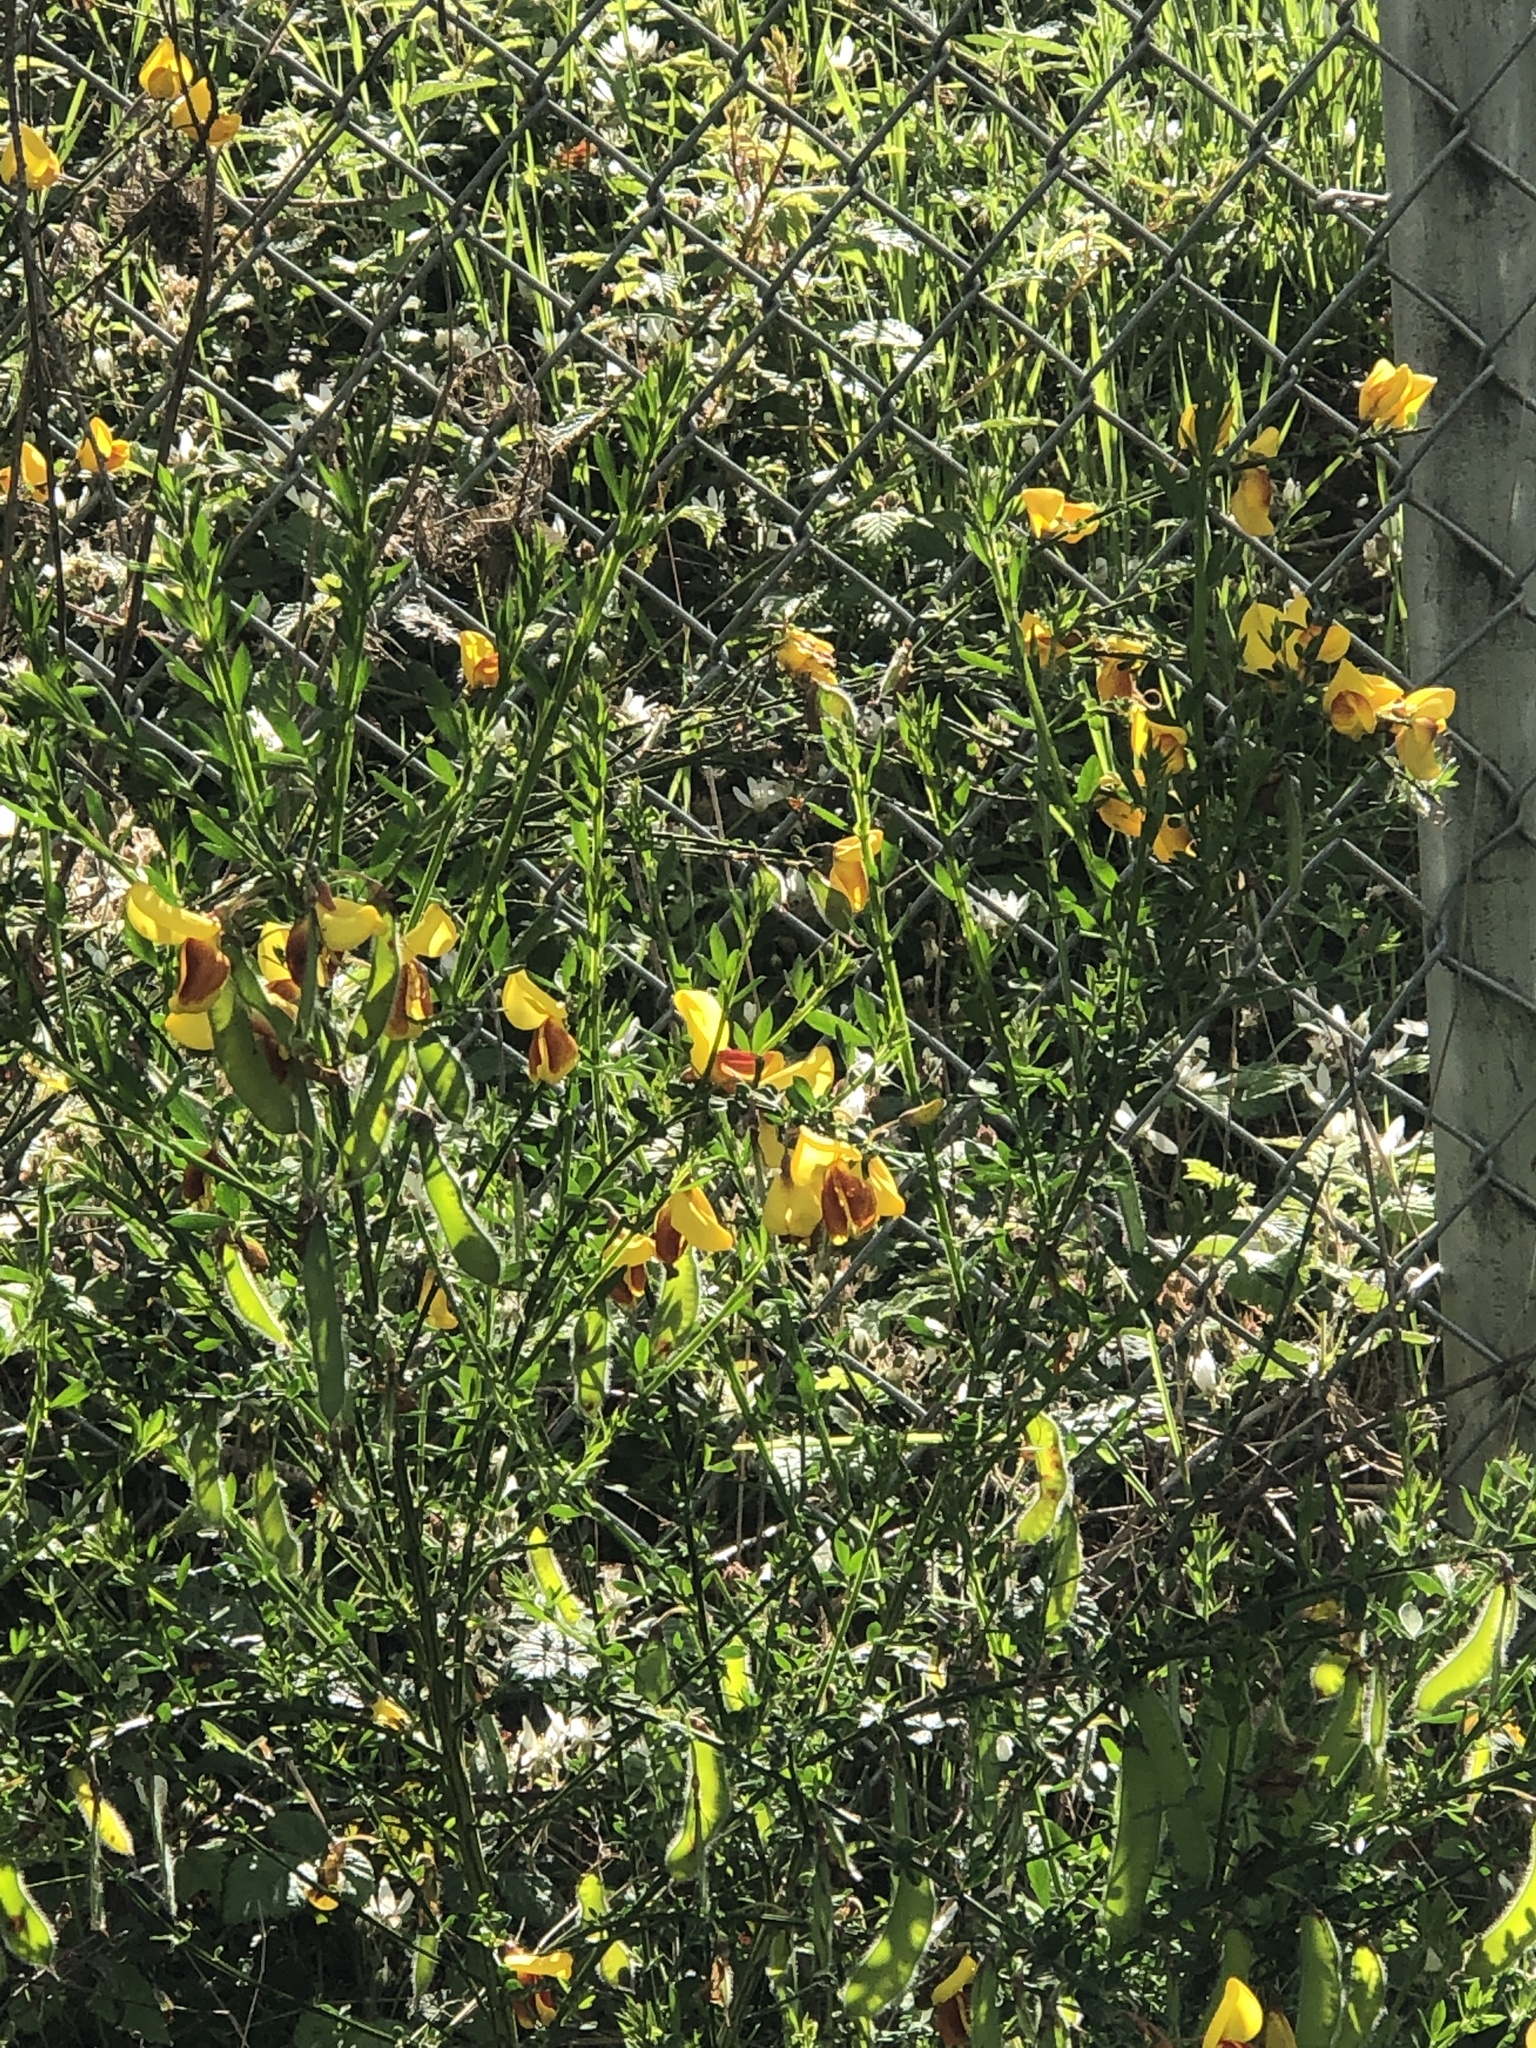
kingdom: Plantae
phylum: Tracheophyta
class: Magnoliopsida
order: Fabales
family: Fabaceae
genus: Cytisus
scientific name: Cytisus scoparius
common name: Scotch broom
